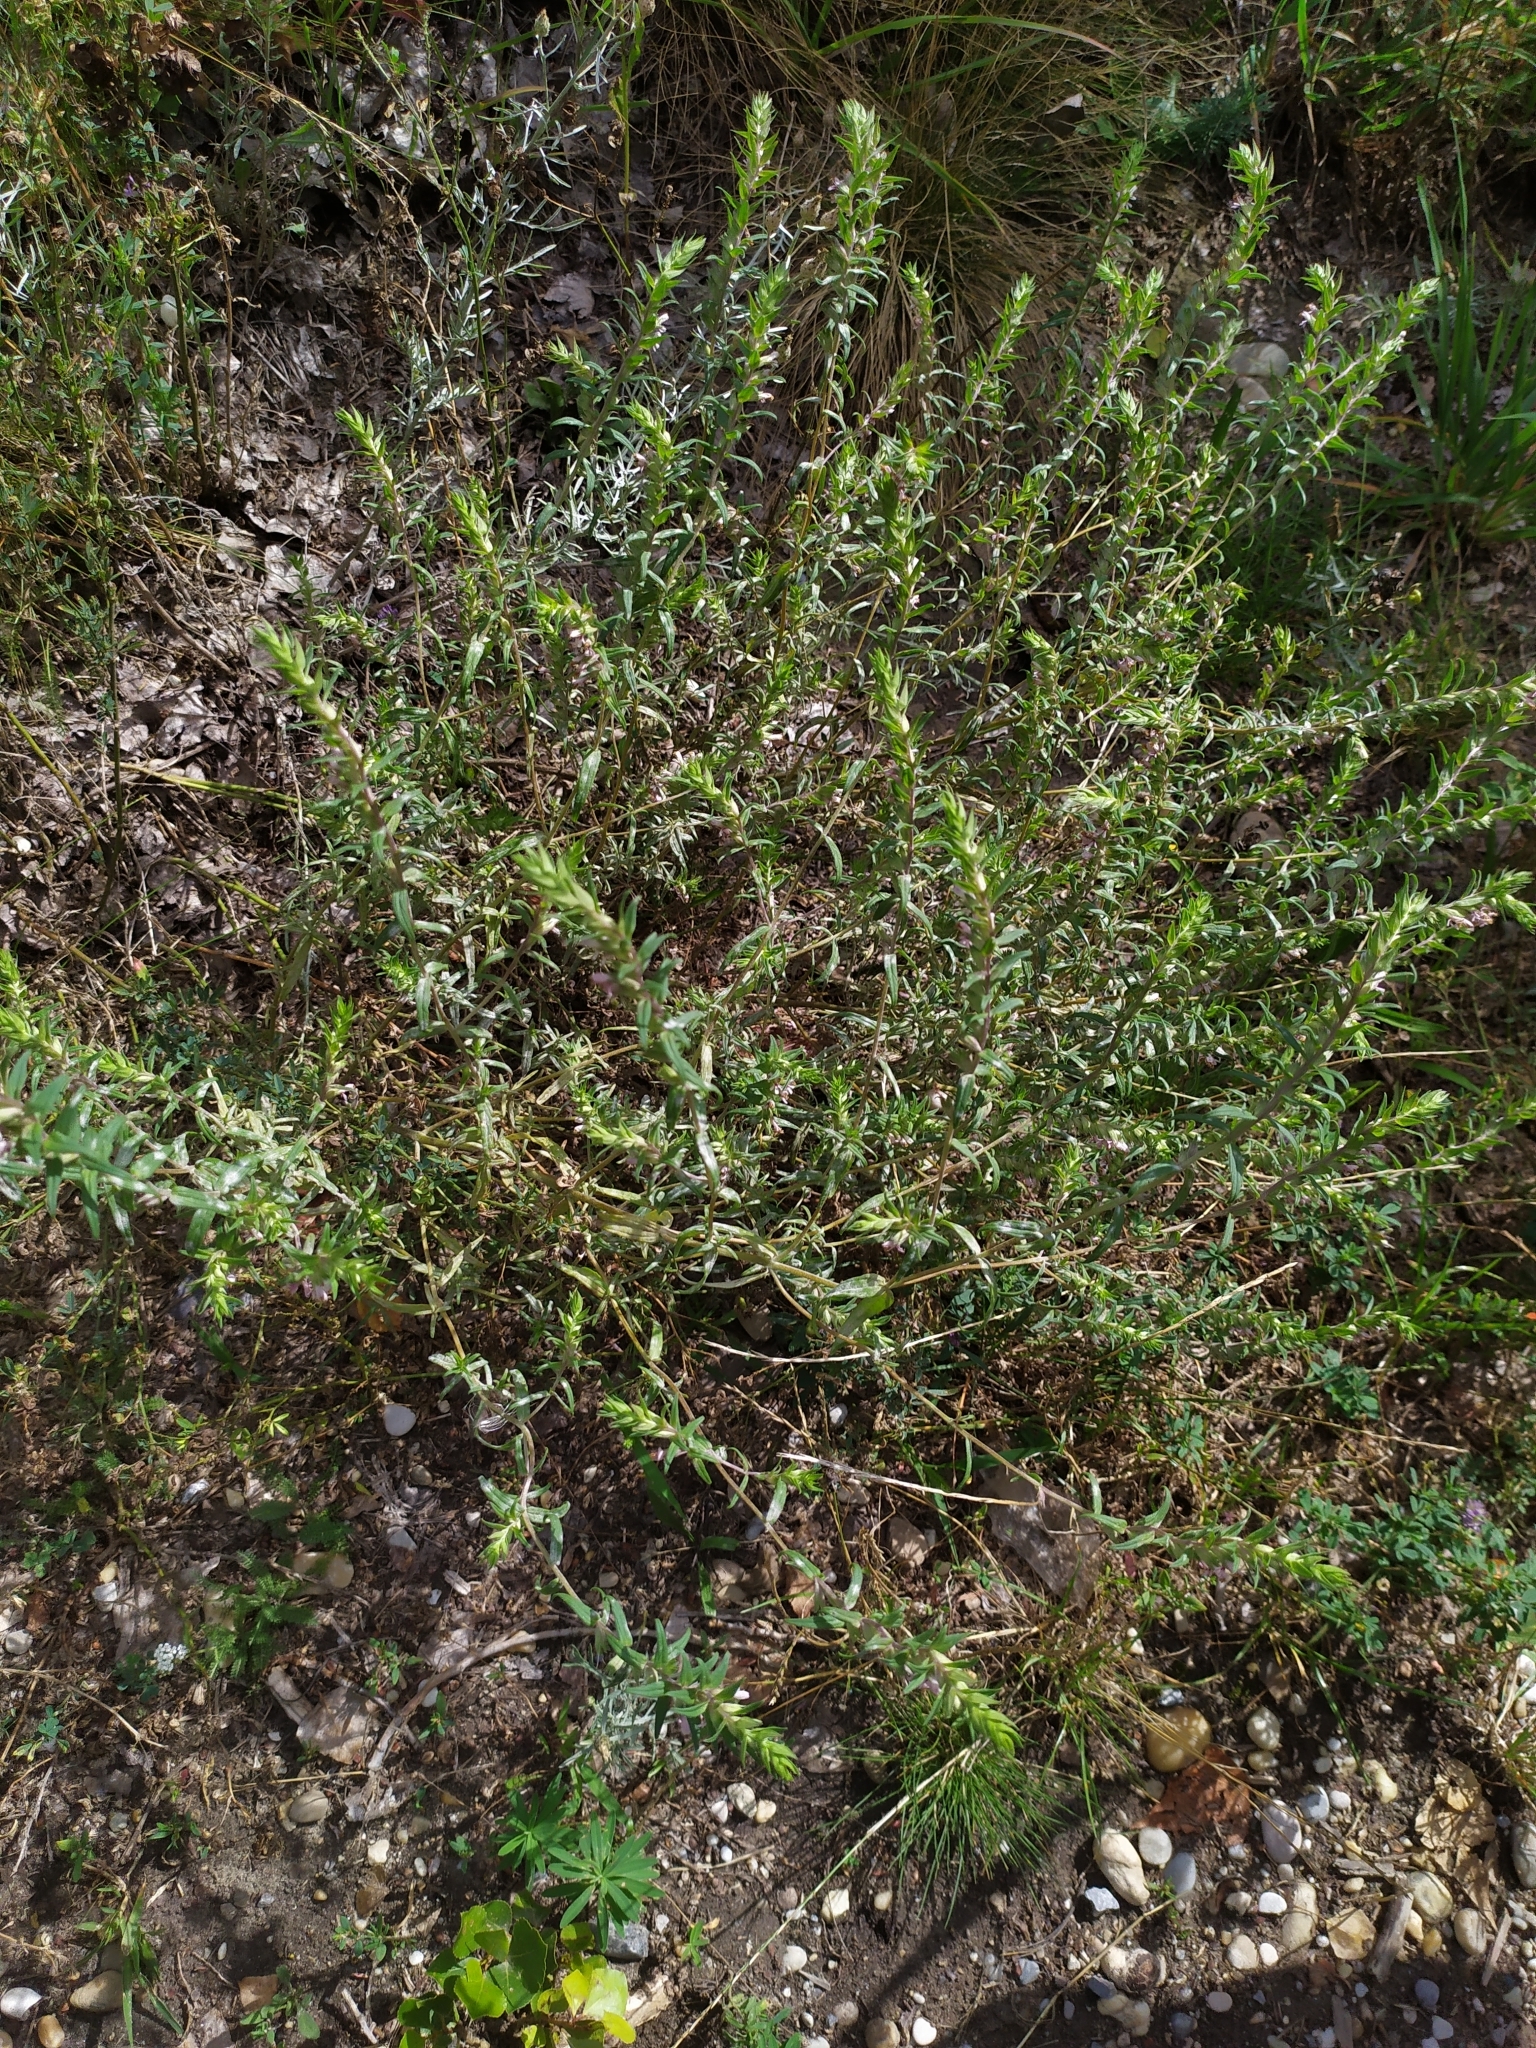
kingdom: Plantae
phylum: Tracheophyta
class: Magnoliopsida
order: Lamiales
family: Orobanchaceae
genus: Odontites
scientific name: Odontites vulgaris
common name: Broomrape
